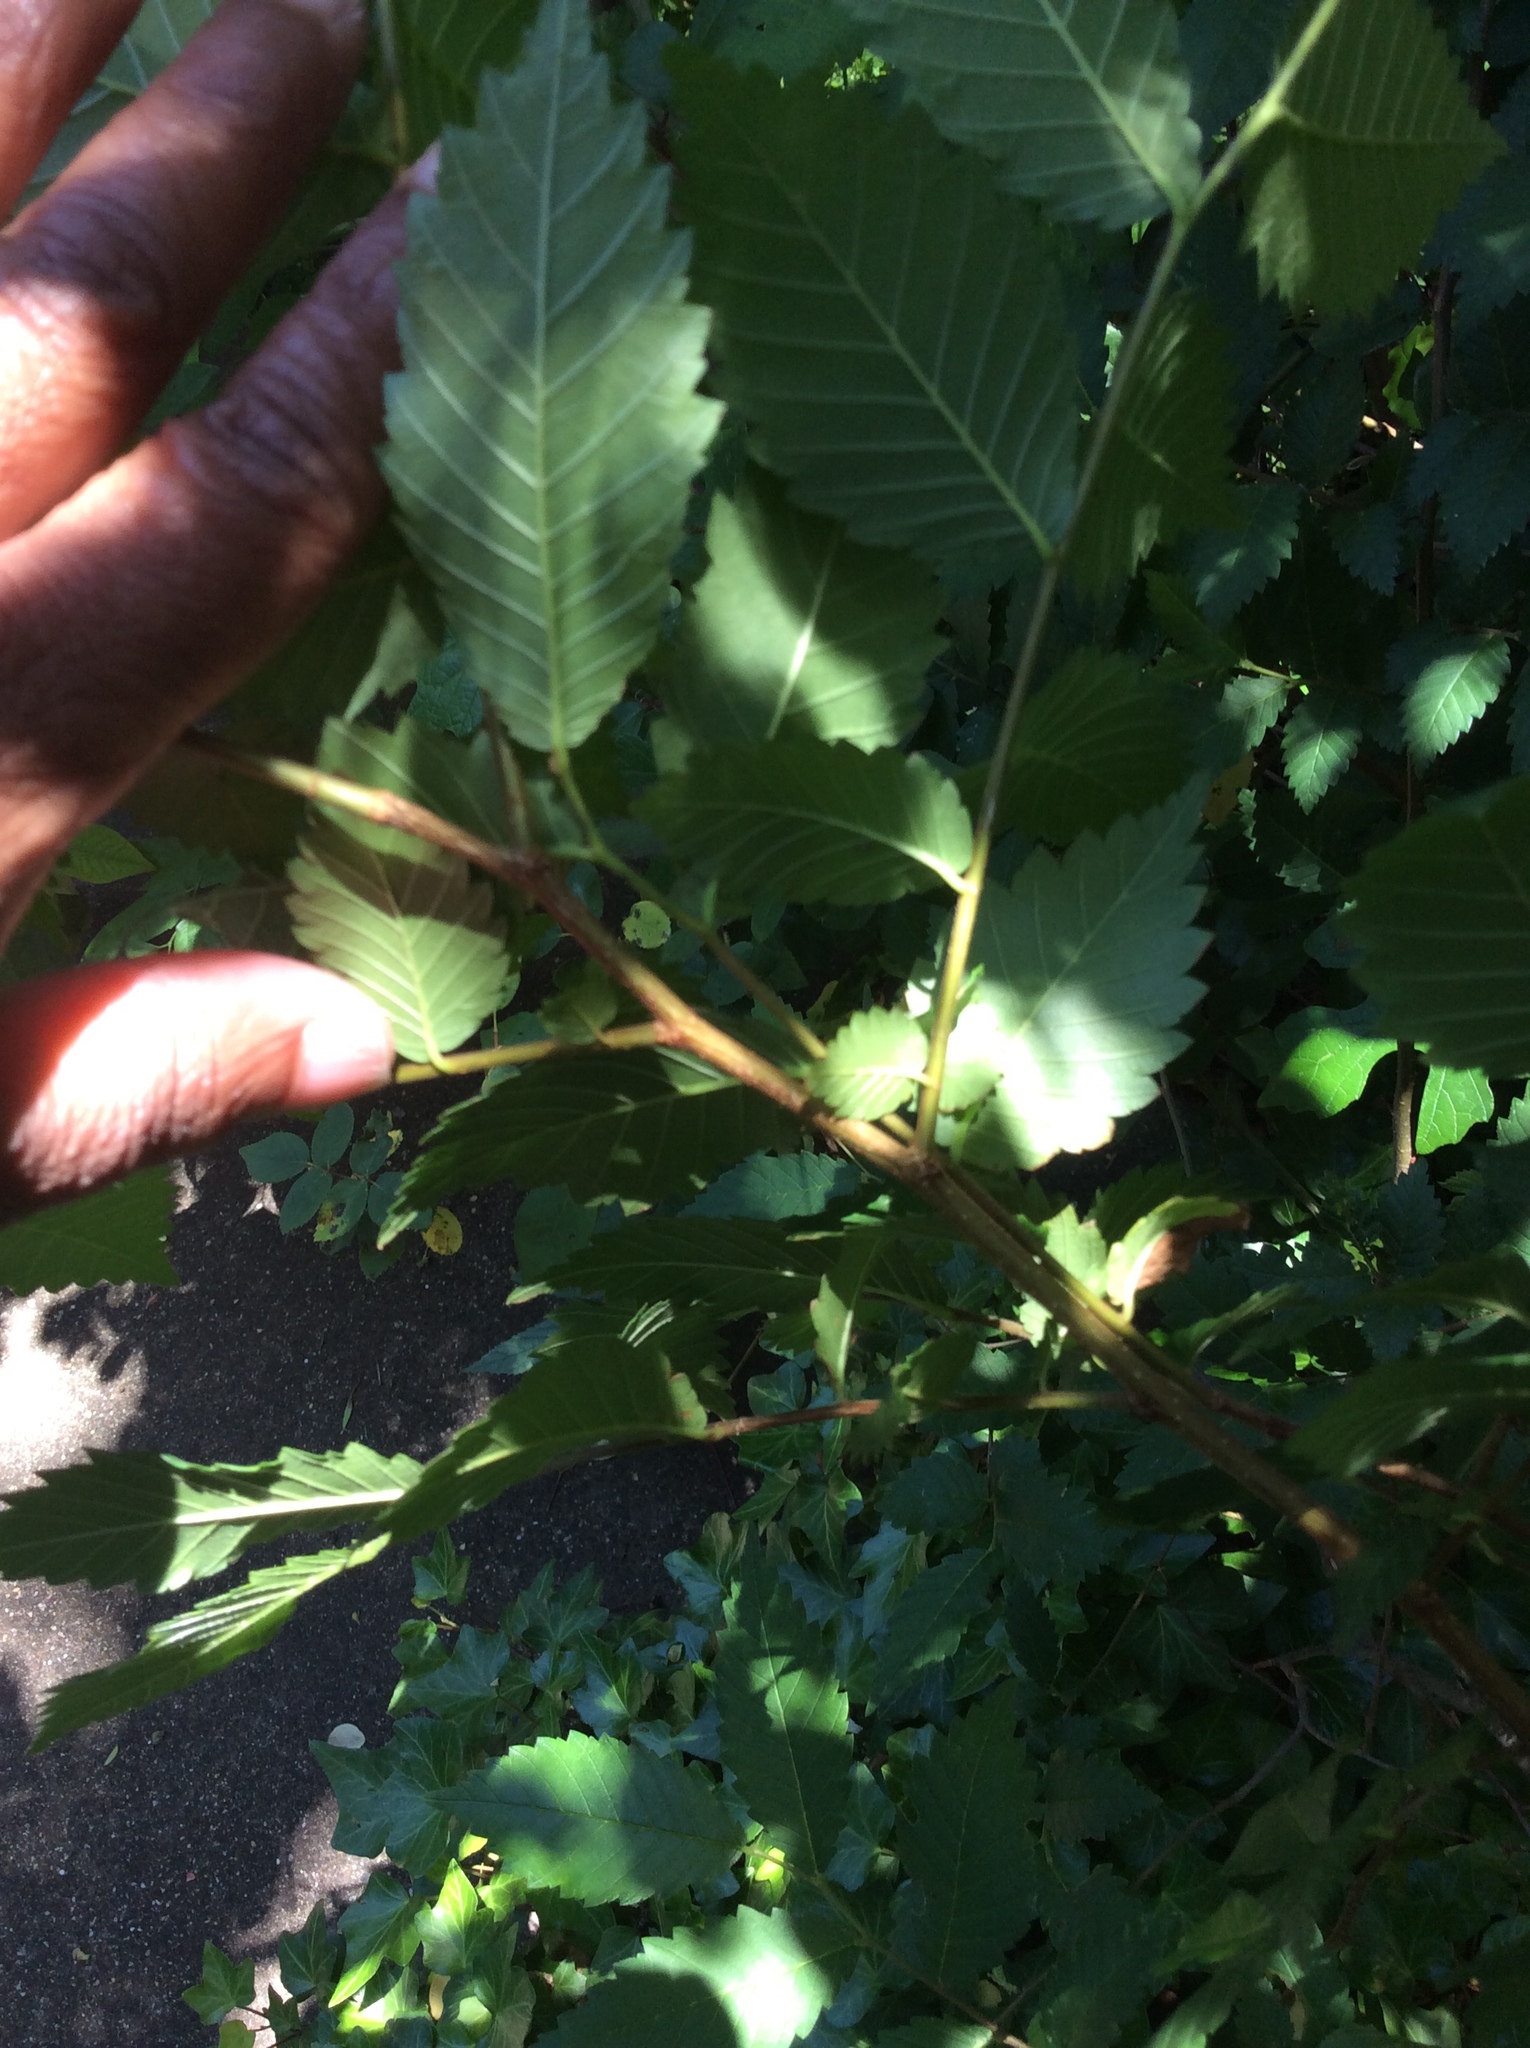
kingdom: Plantae
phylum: Tracheophyta
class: Magnoliopsida
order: Rosales
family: Ulmaceae
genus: Ulmus
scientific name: Ulmus alata
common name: Winged elm
